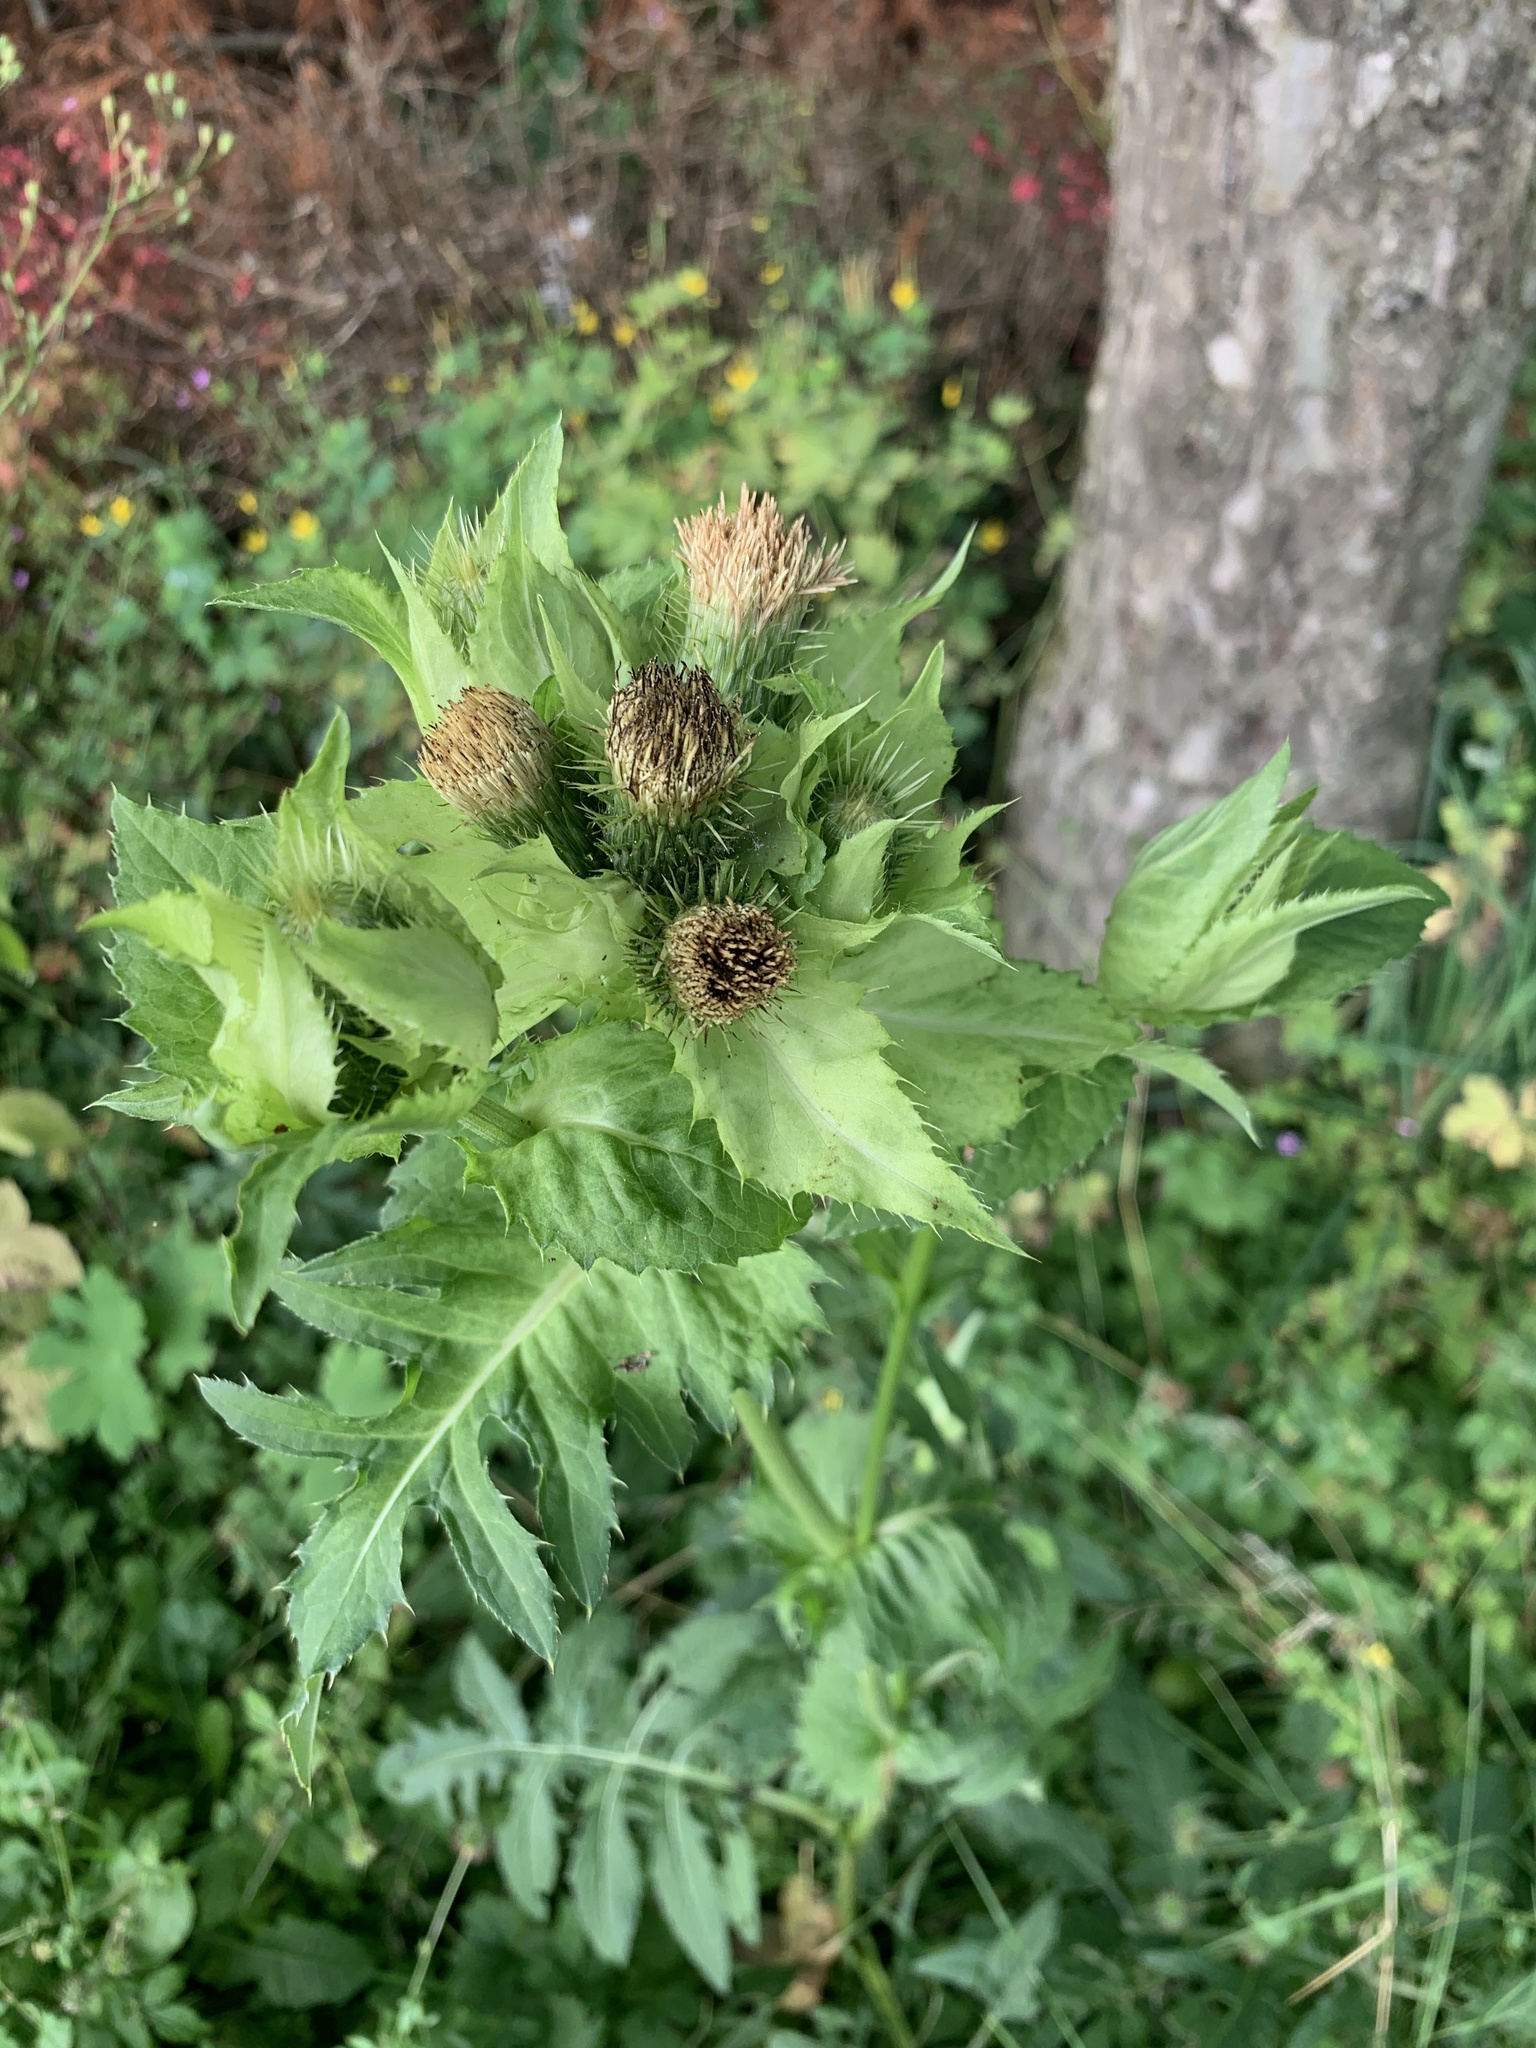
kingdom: Plantae
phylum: Tracheophyta
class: Magnoliopsida
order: Asterales
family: Asteraceae
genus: Cirsium
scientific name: Cirsium oleraceum
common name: Cabbage thistle
